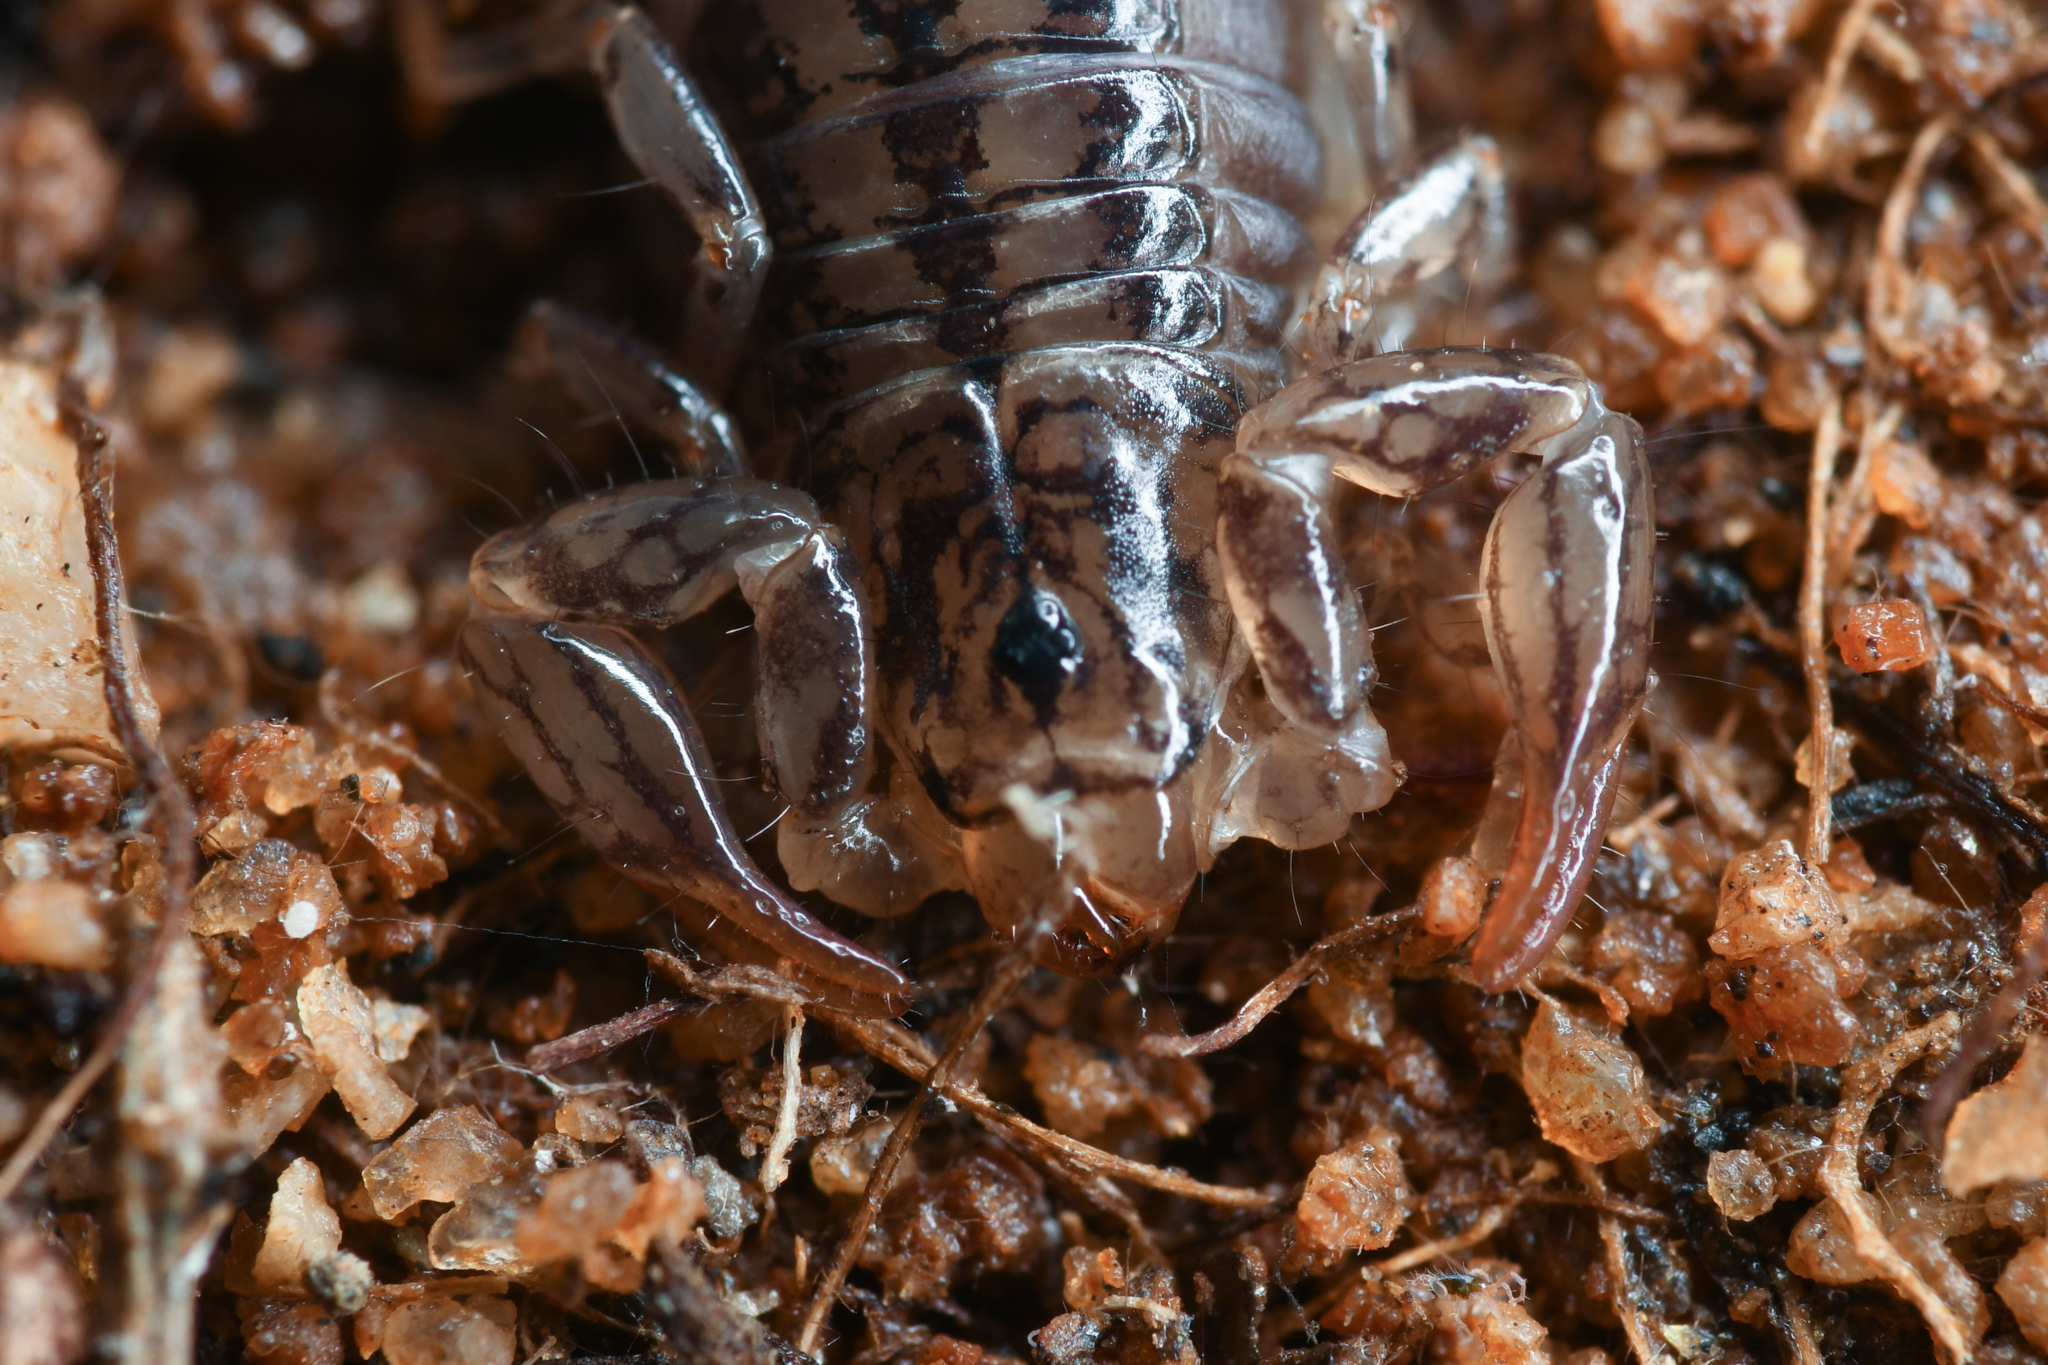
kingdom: Animalia
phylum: Arthropoda
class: Arachnida
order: Scorpiones
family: Superstitioniidae
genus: Superstitionia
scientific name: Superstitionia donensis
